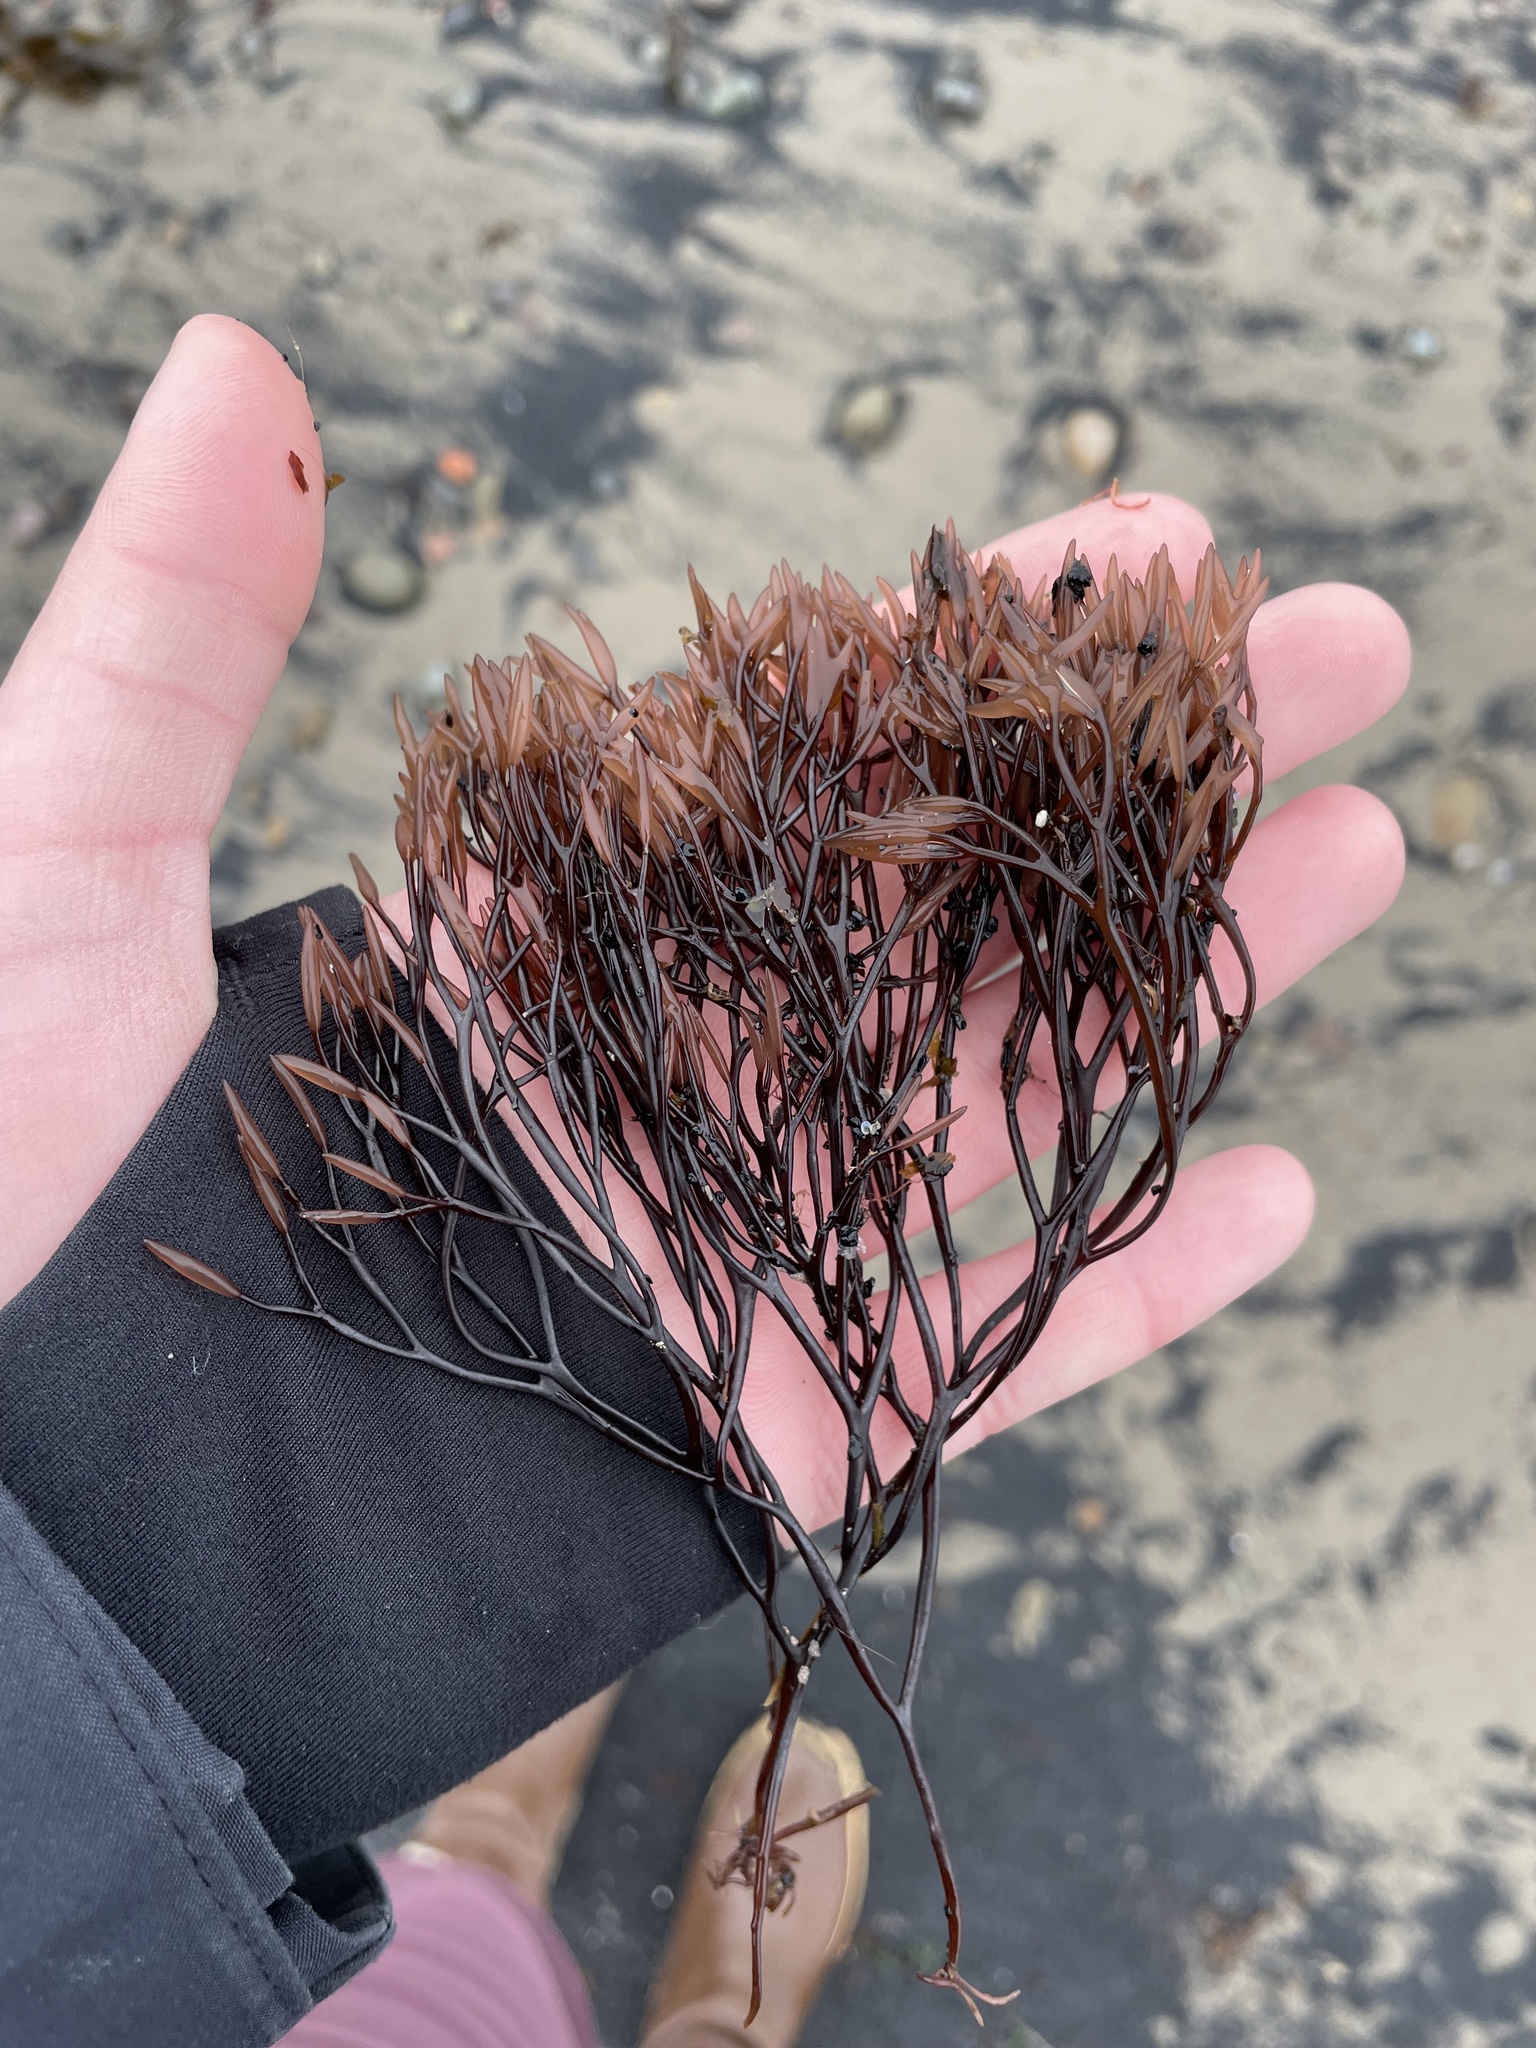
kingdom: Plantae
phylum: Rhodophyta
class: Florideophyceae
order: Gigartinales
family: Furcellariaceae
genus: Furcellaria
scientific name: Furcellaria lumbricalis
